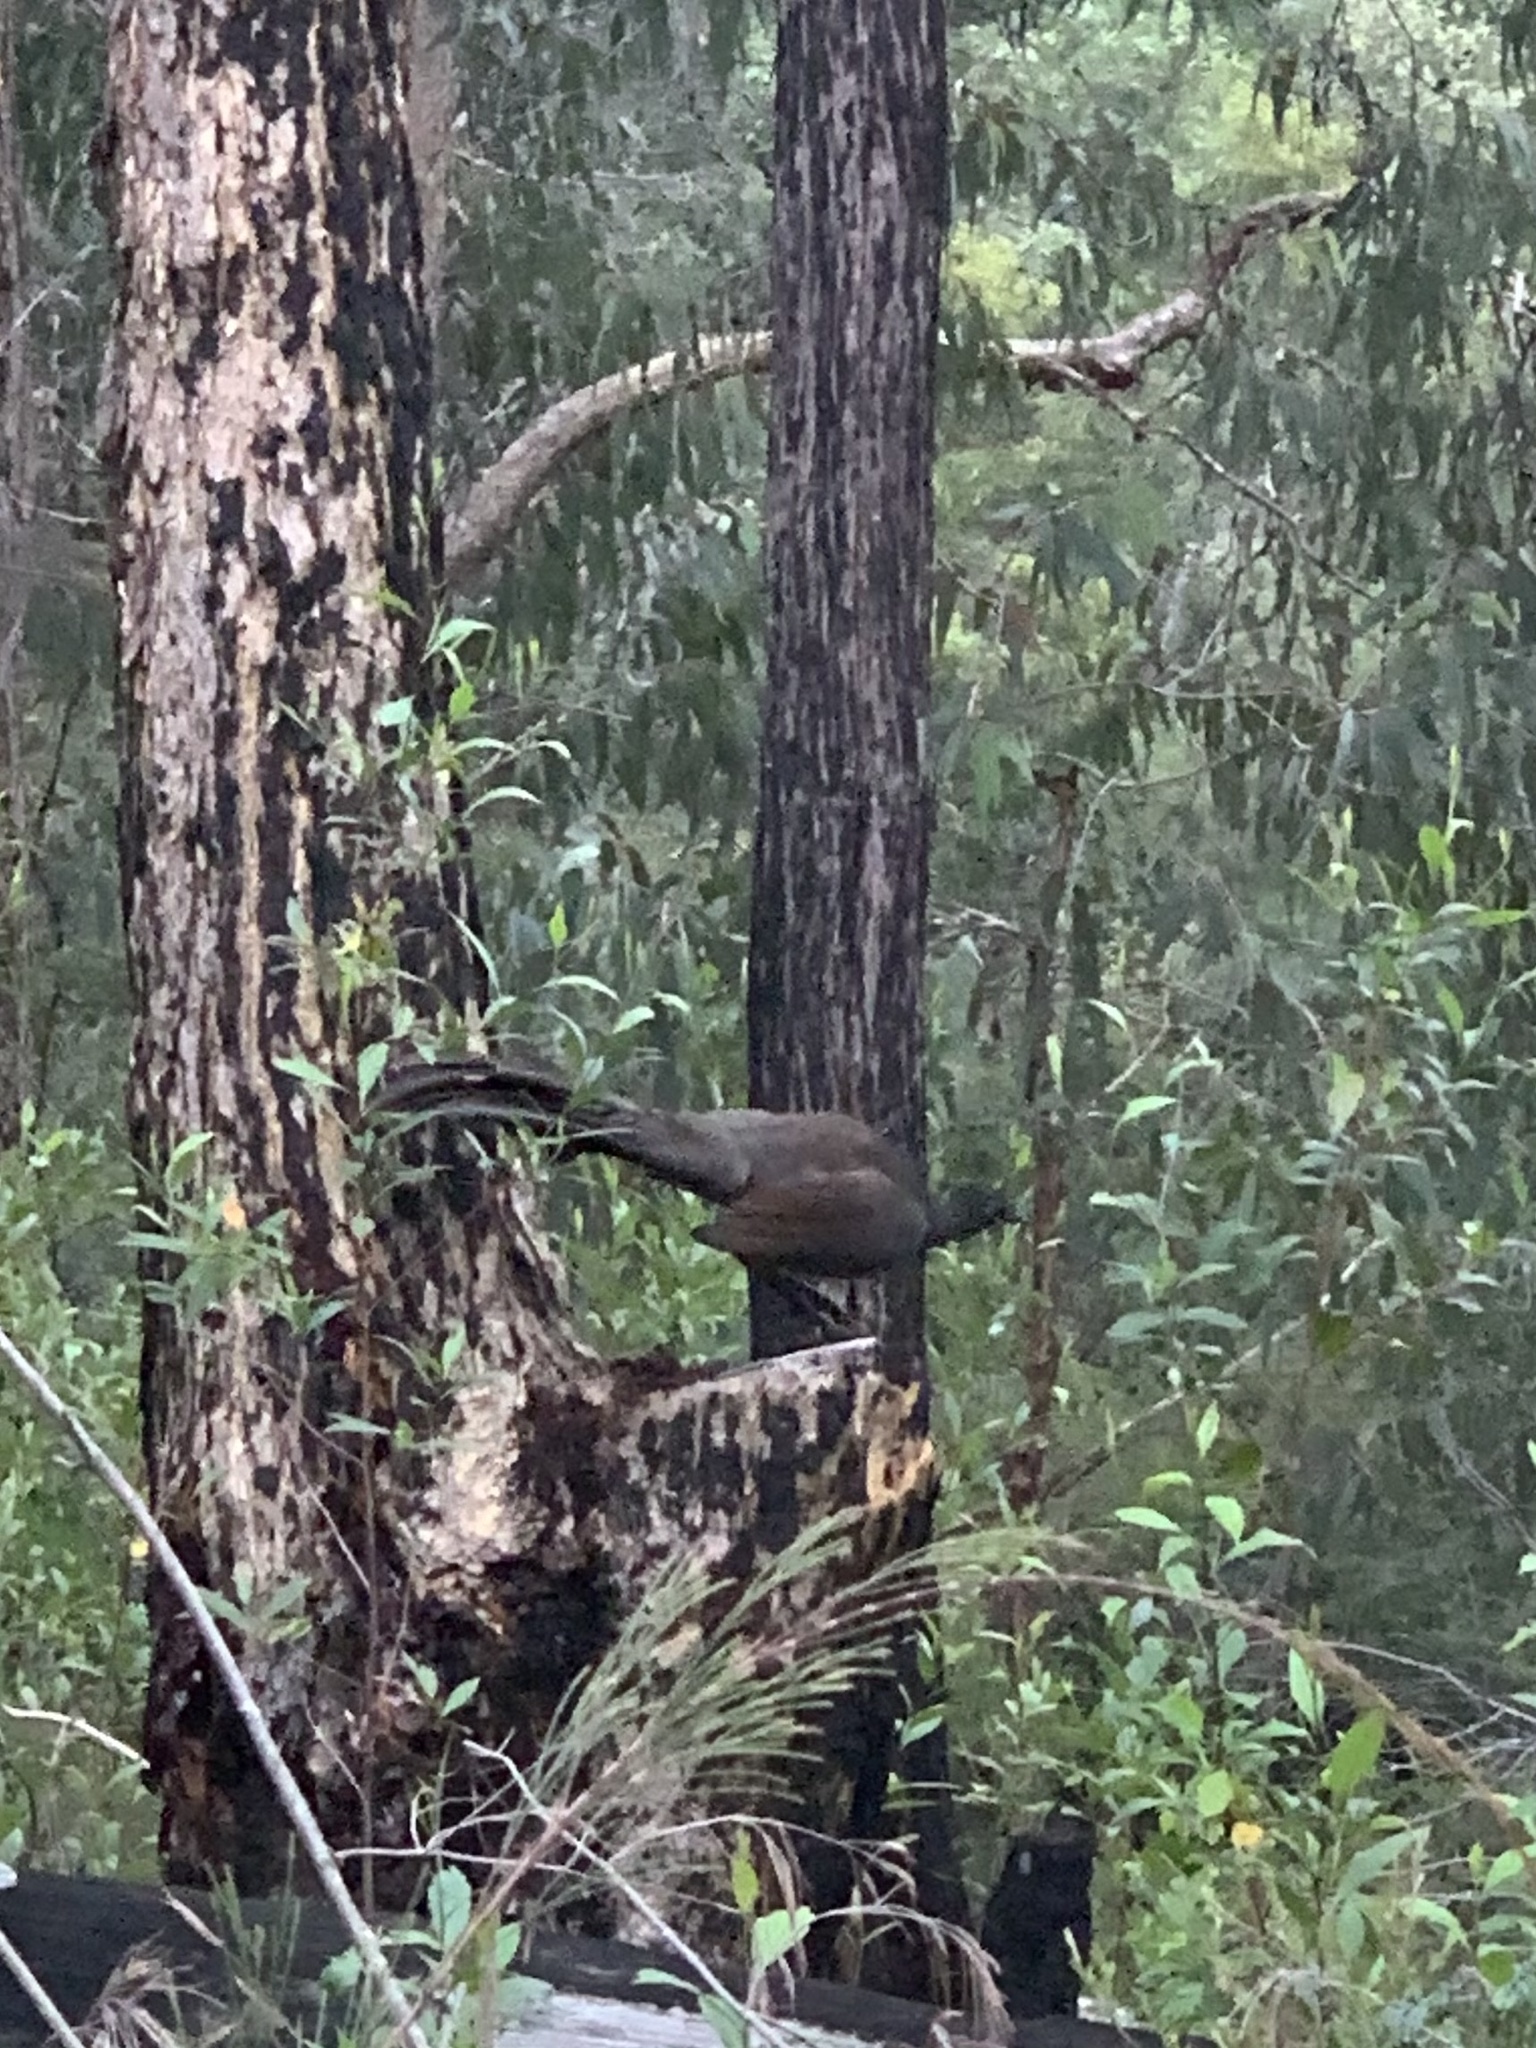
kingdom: Animalia
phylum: Chordata
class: Aves
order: Passeriformes
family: Menuridae
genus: Menura
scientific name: Menura novaehollandiae
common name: Superb lyrebird
